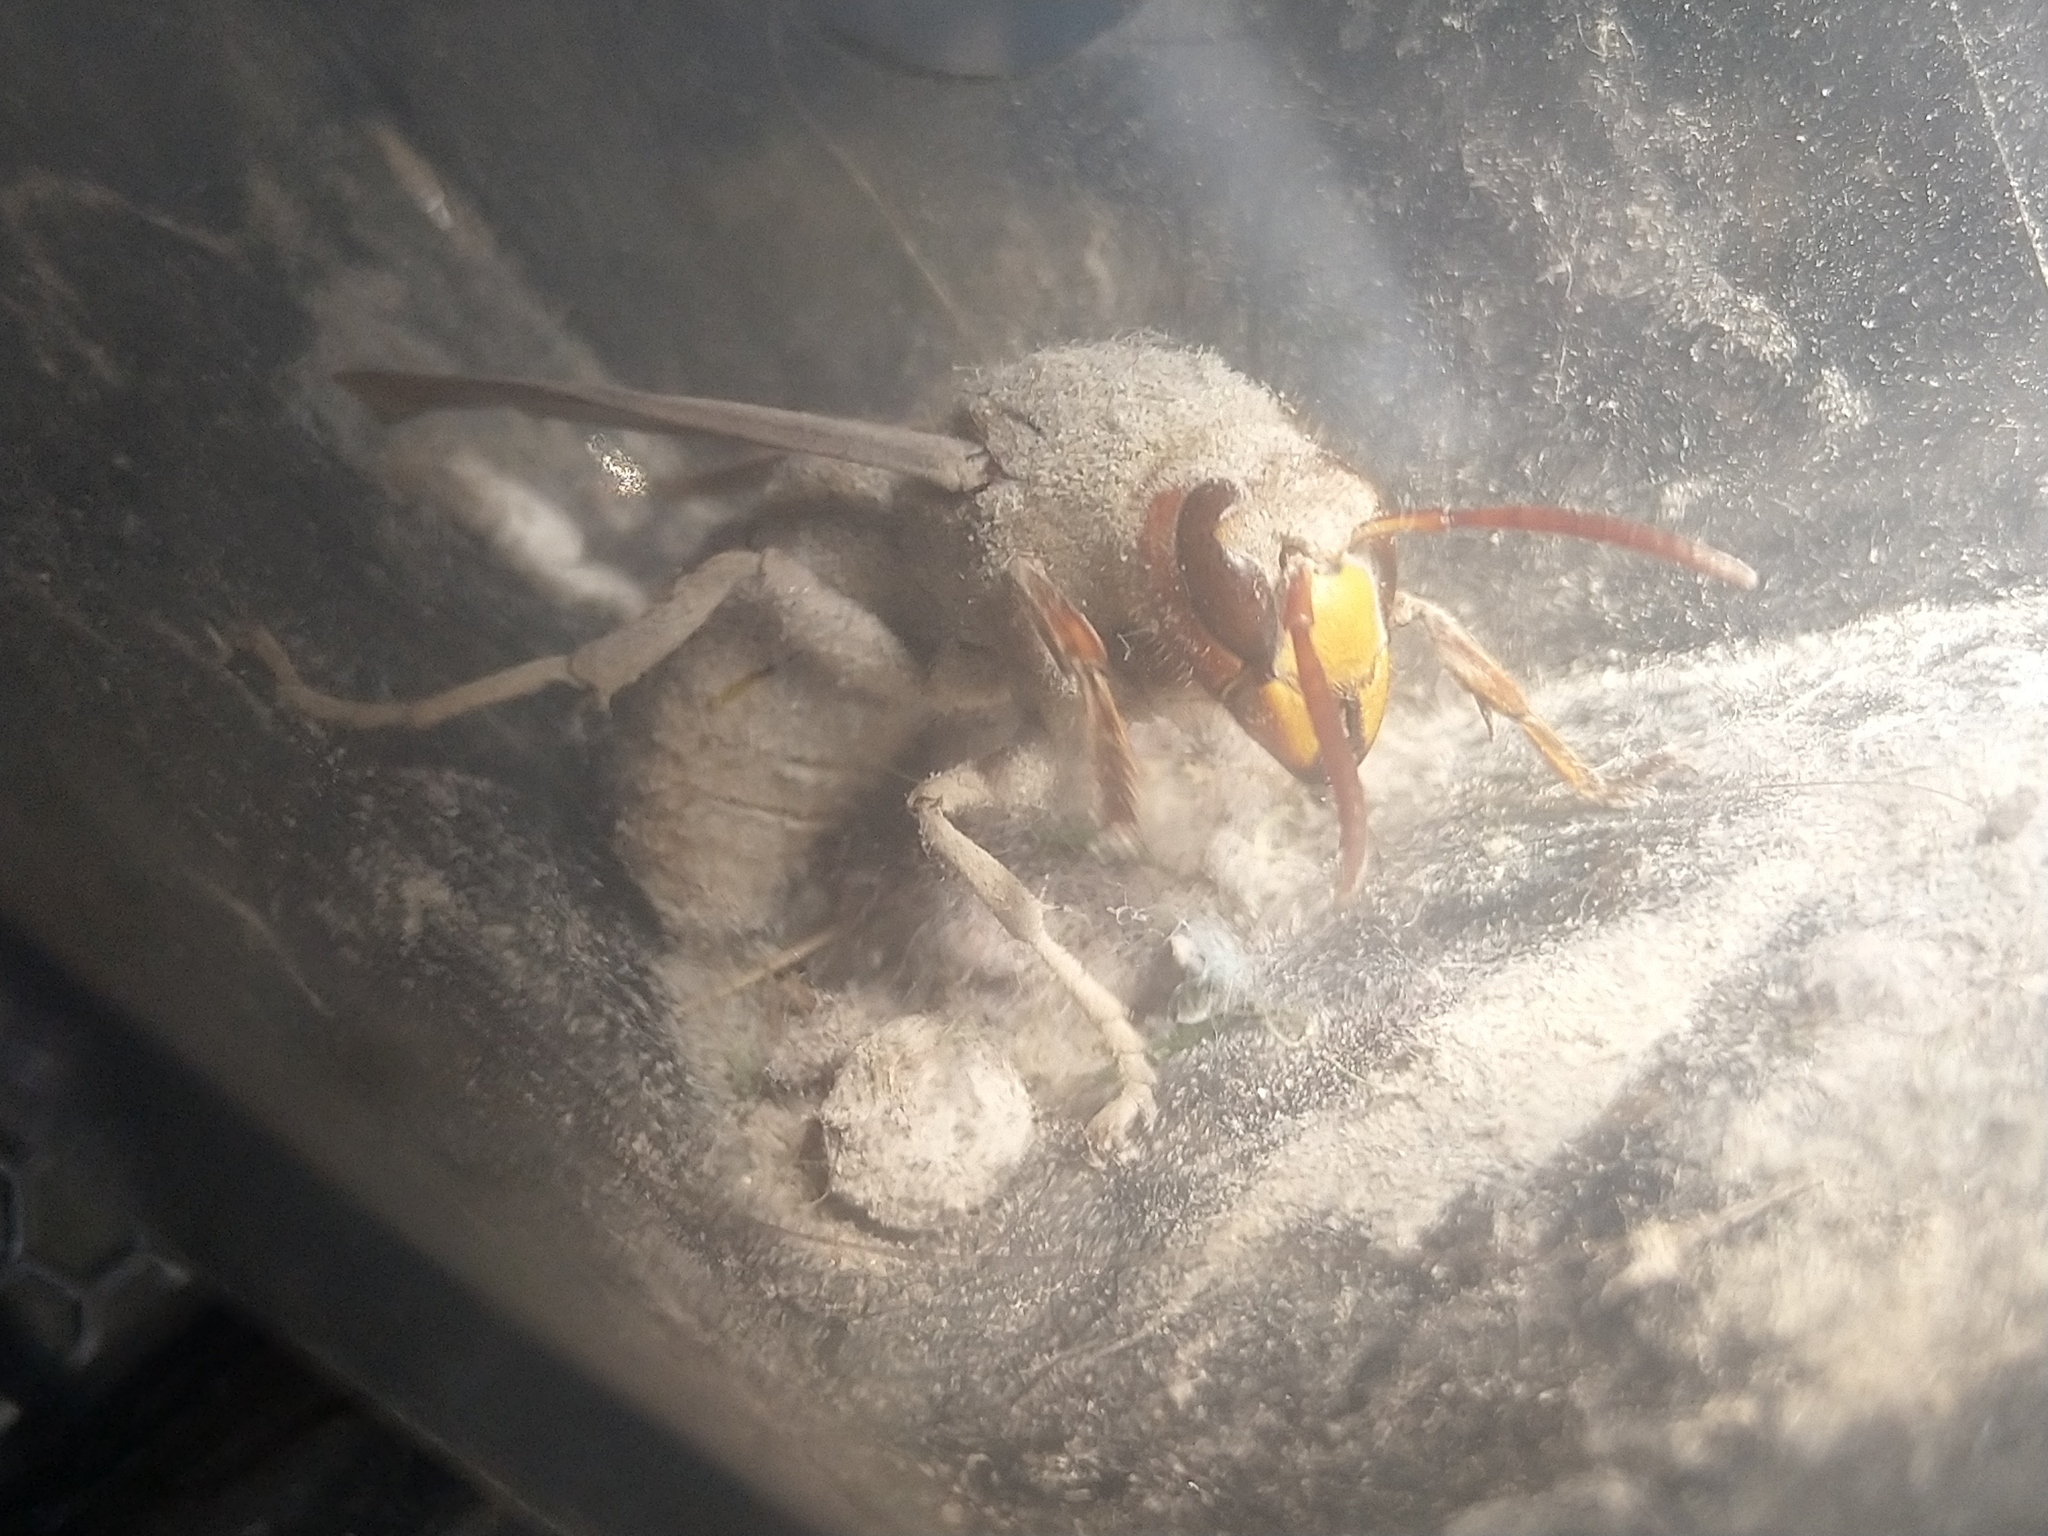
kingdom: Animalia
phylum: Arthropoda
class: Insecta
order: Hymenoptera
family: Vespidae
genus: Vespa
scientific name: Vespa crabro
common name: Hornet
